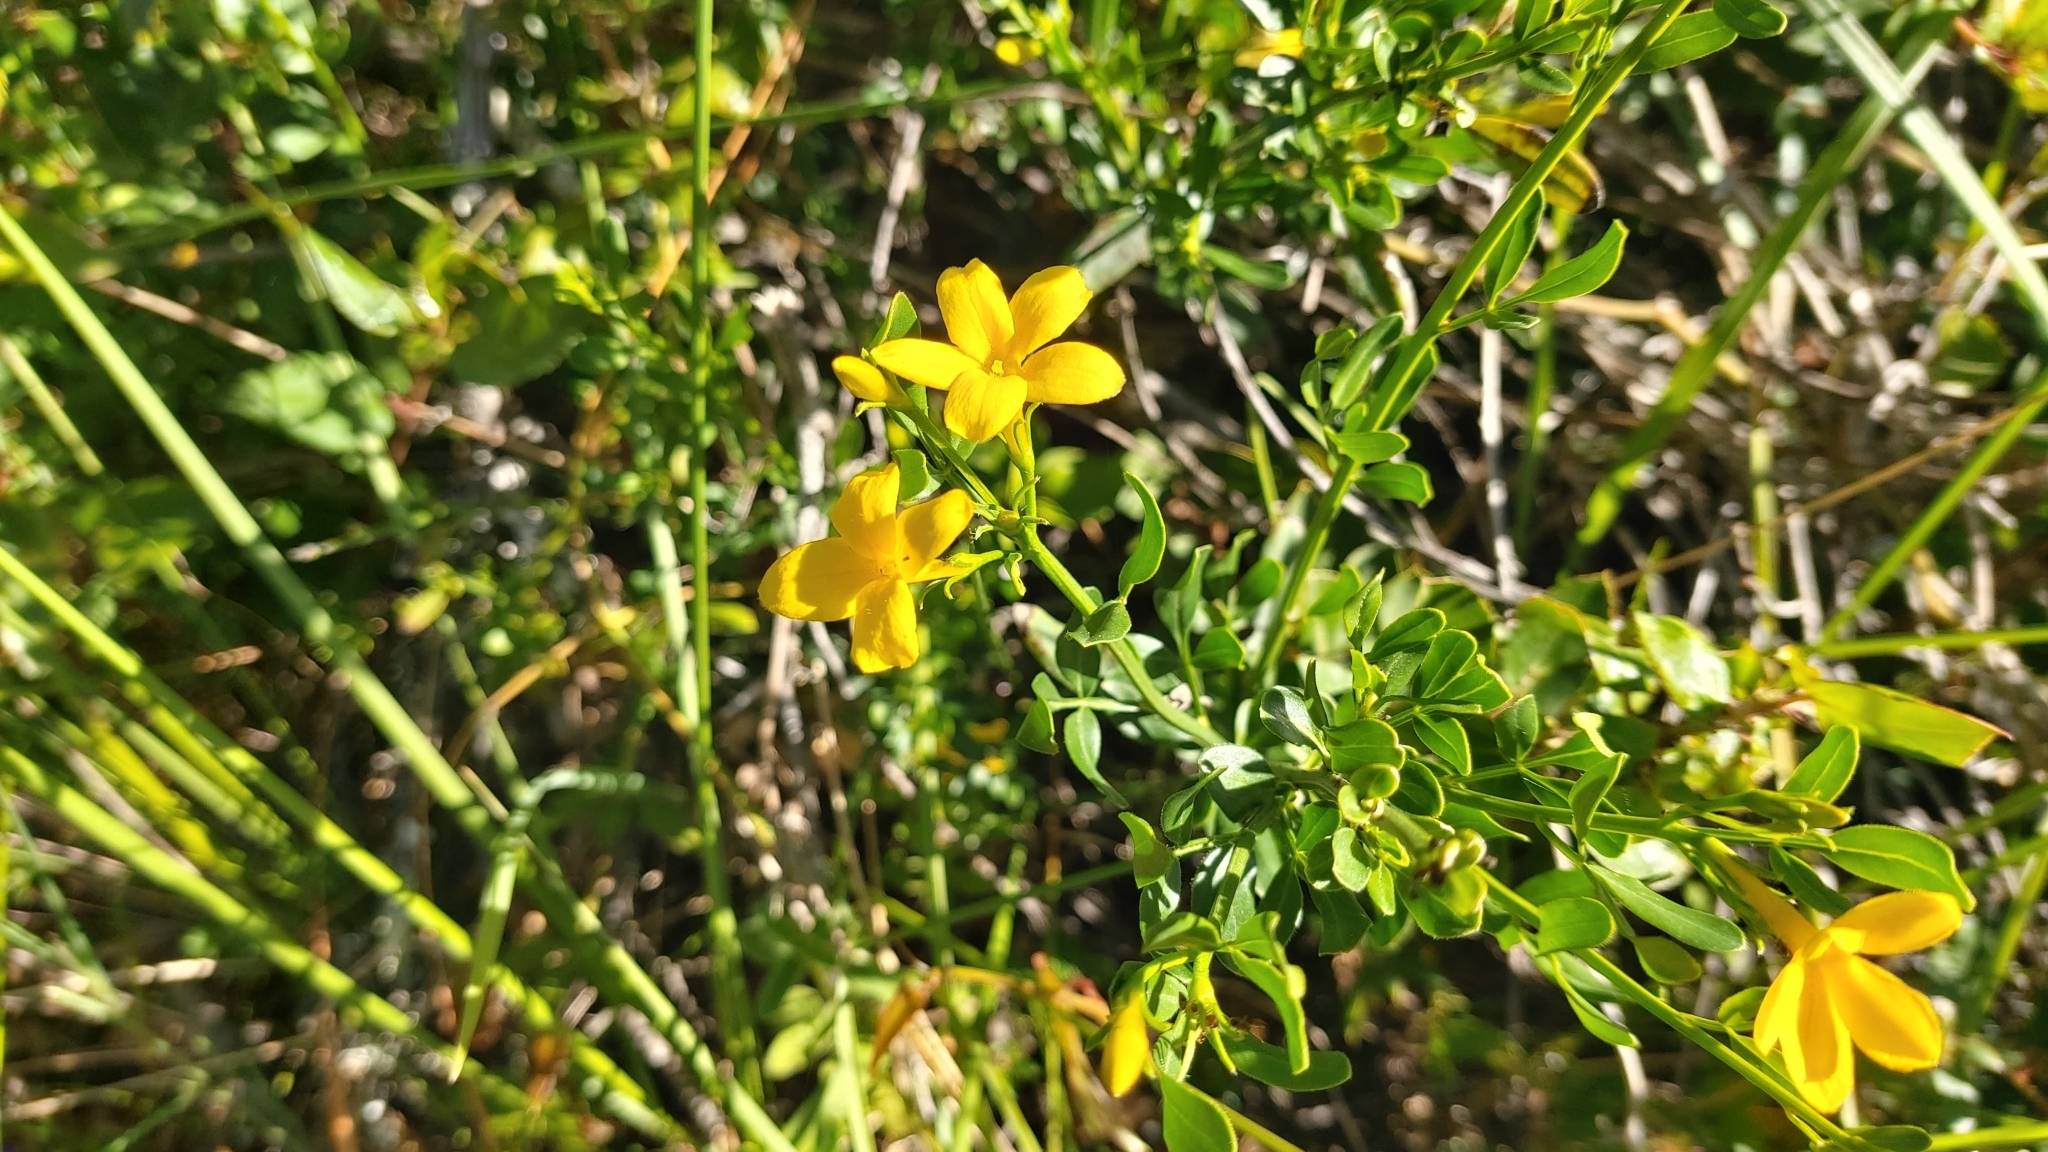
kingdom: Plantae
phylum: Tracheophyta
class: Magnoliopsida
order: Lamiales
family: Oleaceae
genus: Chrysojasminum
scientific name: Chrysojasminum fruticans
